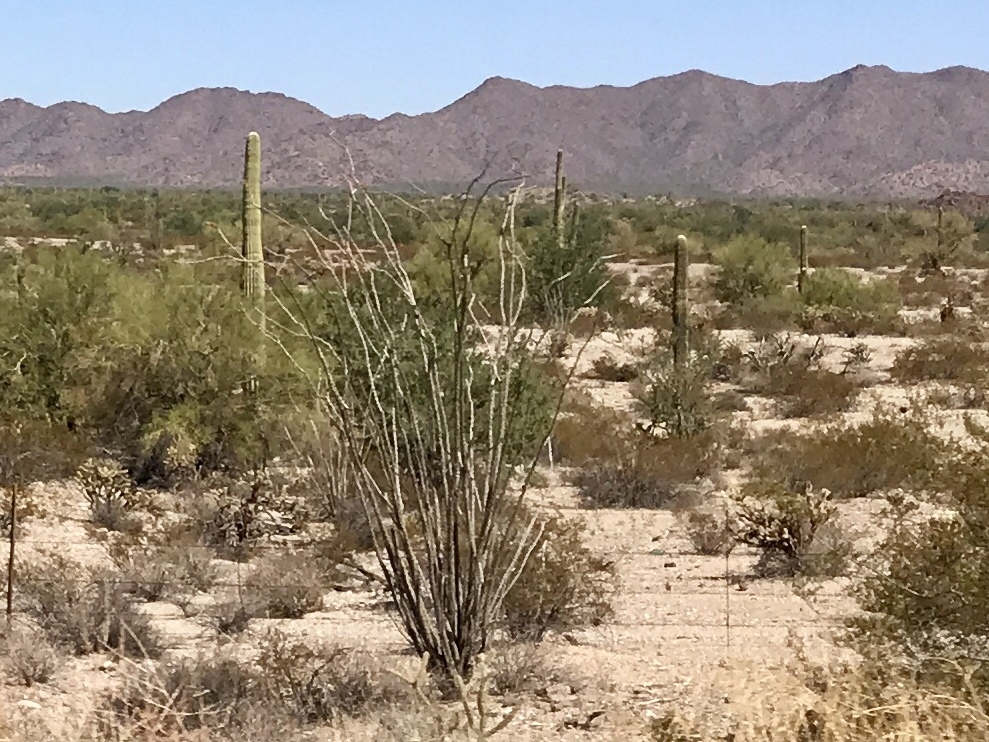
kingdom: Plantae
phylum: Tracheophyta
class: Magnoliopsida
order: Ericales
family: Fouquieriaceae
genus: Fouquieria
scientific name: Fouquieria splendens
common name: Vine-cactus
